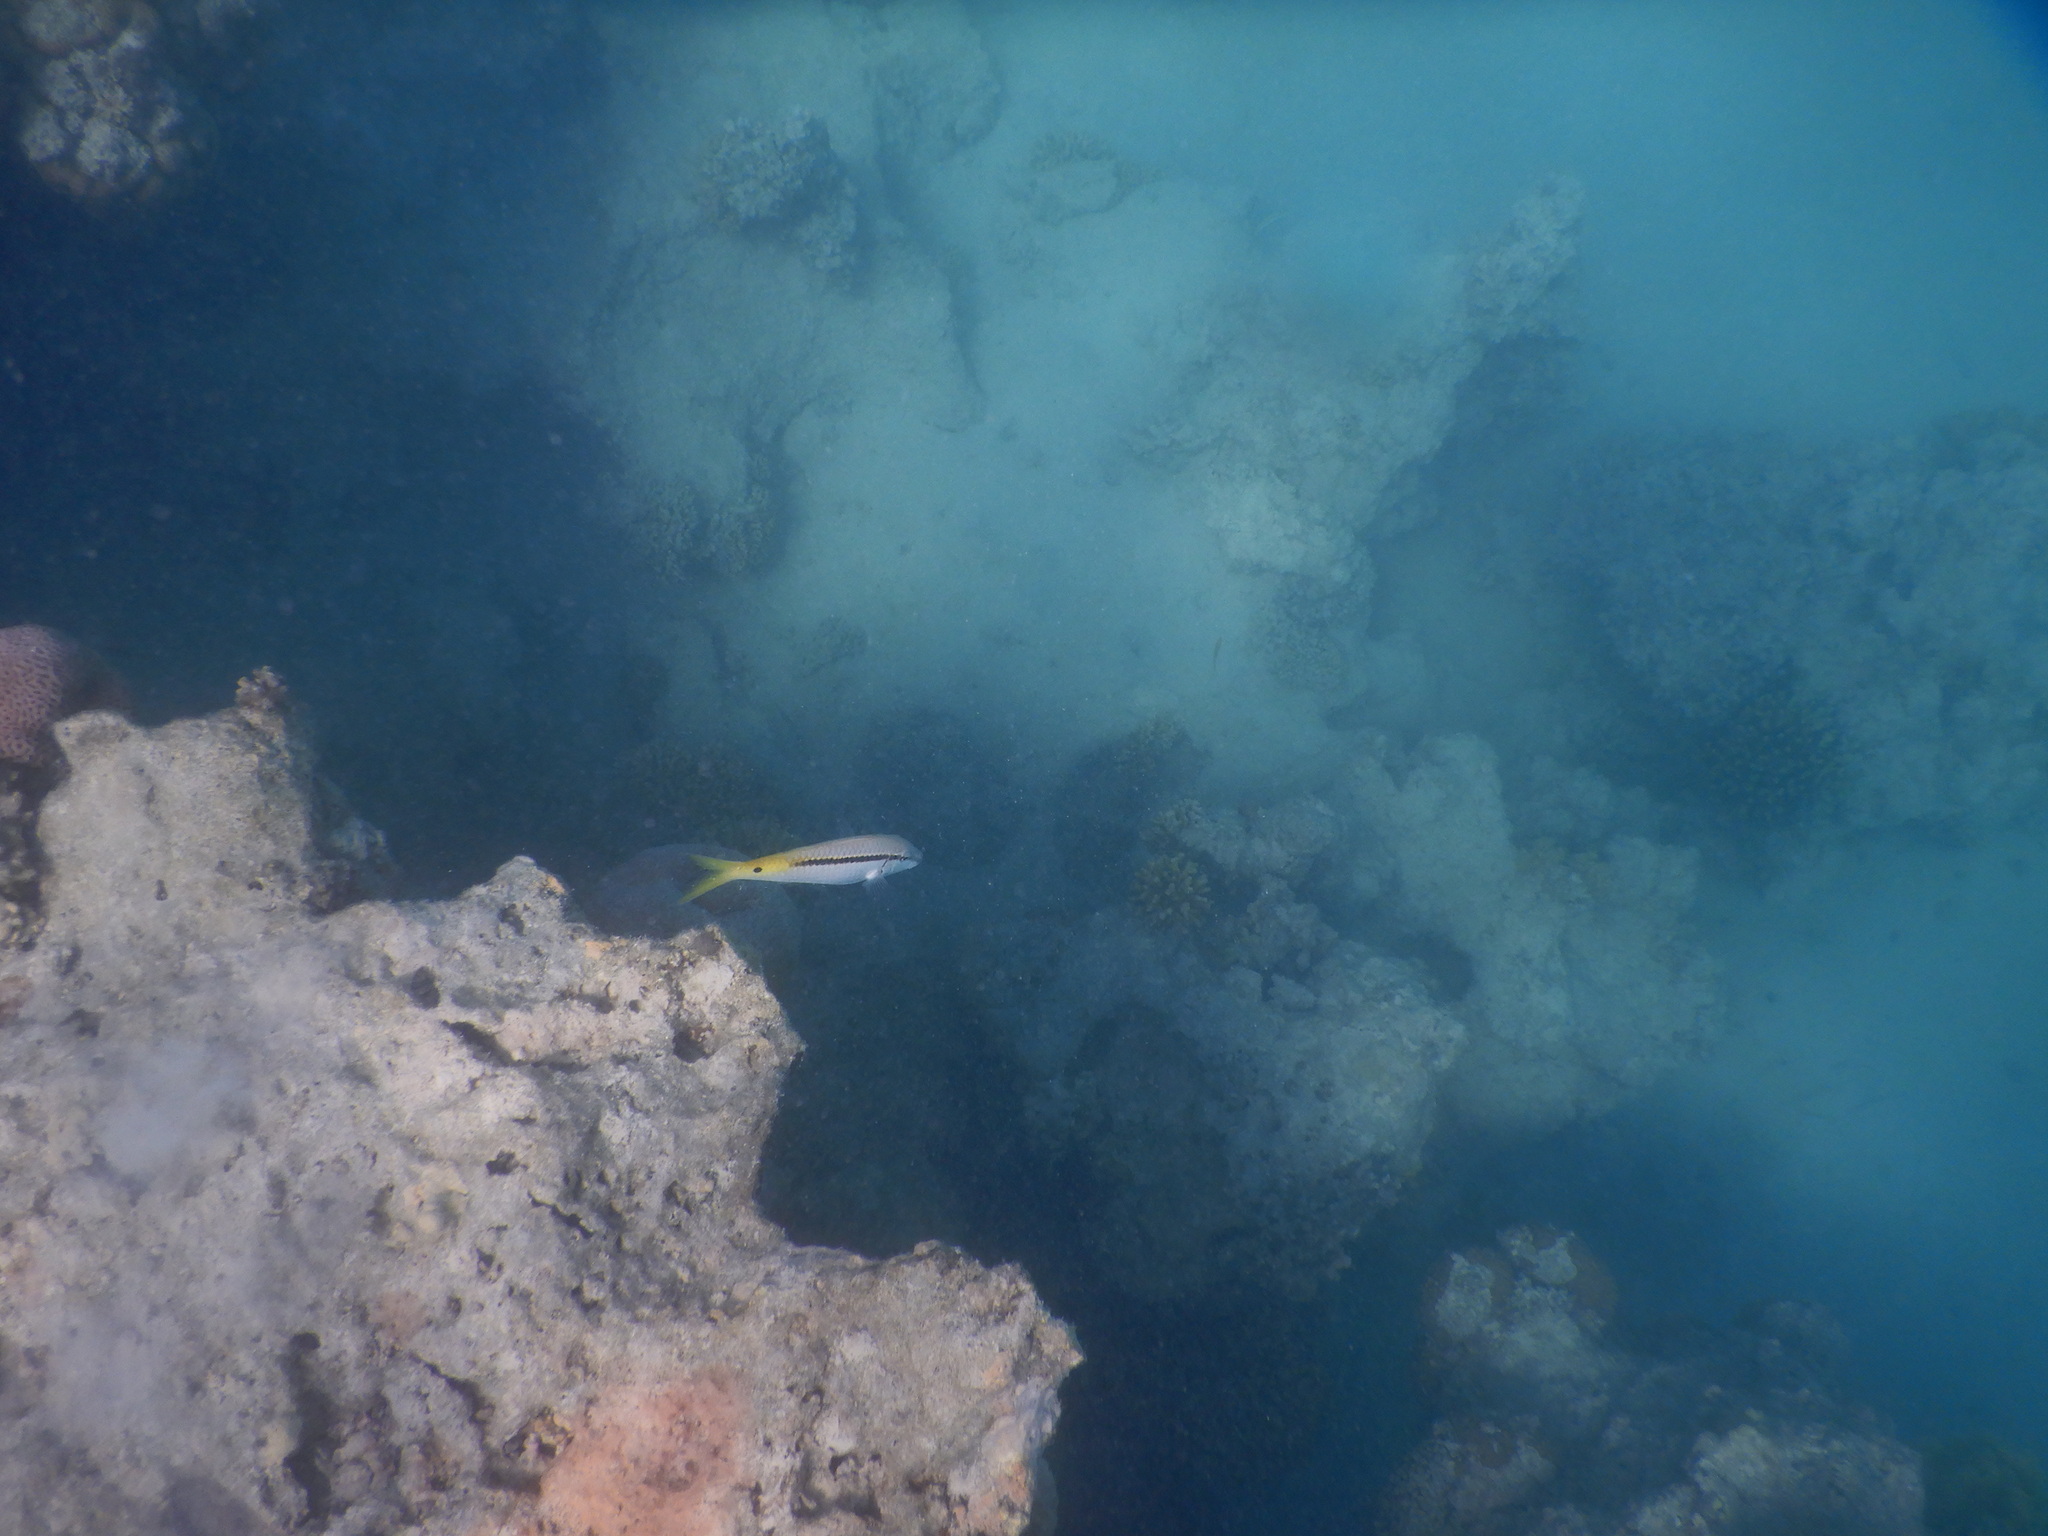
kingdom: Animalia
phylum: Chordata
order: Perciformes
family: Mullidae
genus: Parupeneus
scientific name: Parupeneus forsskali
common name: Red sea goatfish
